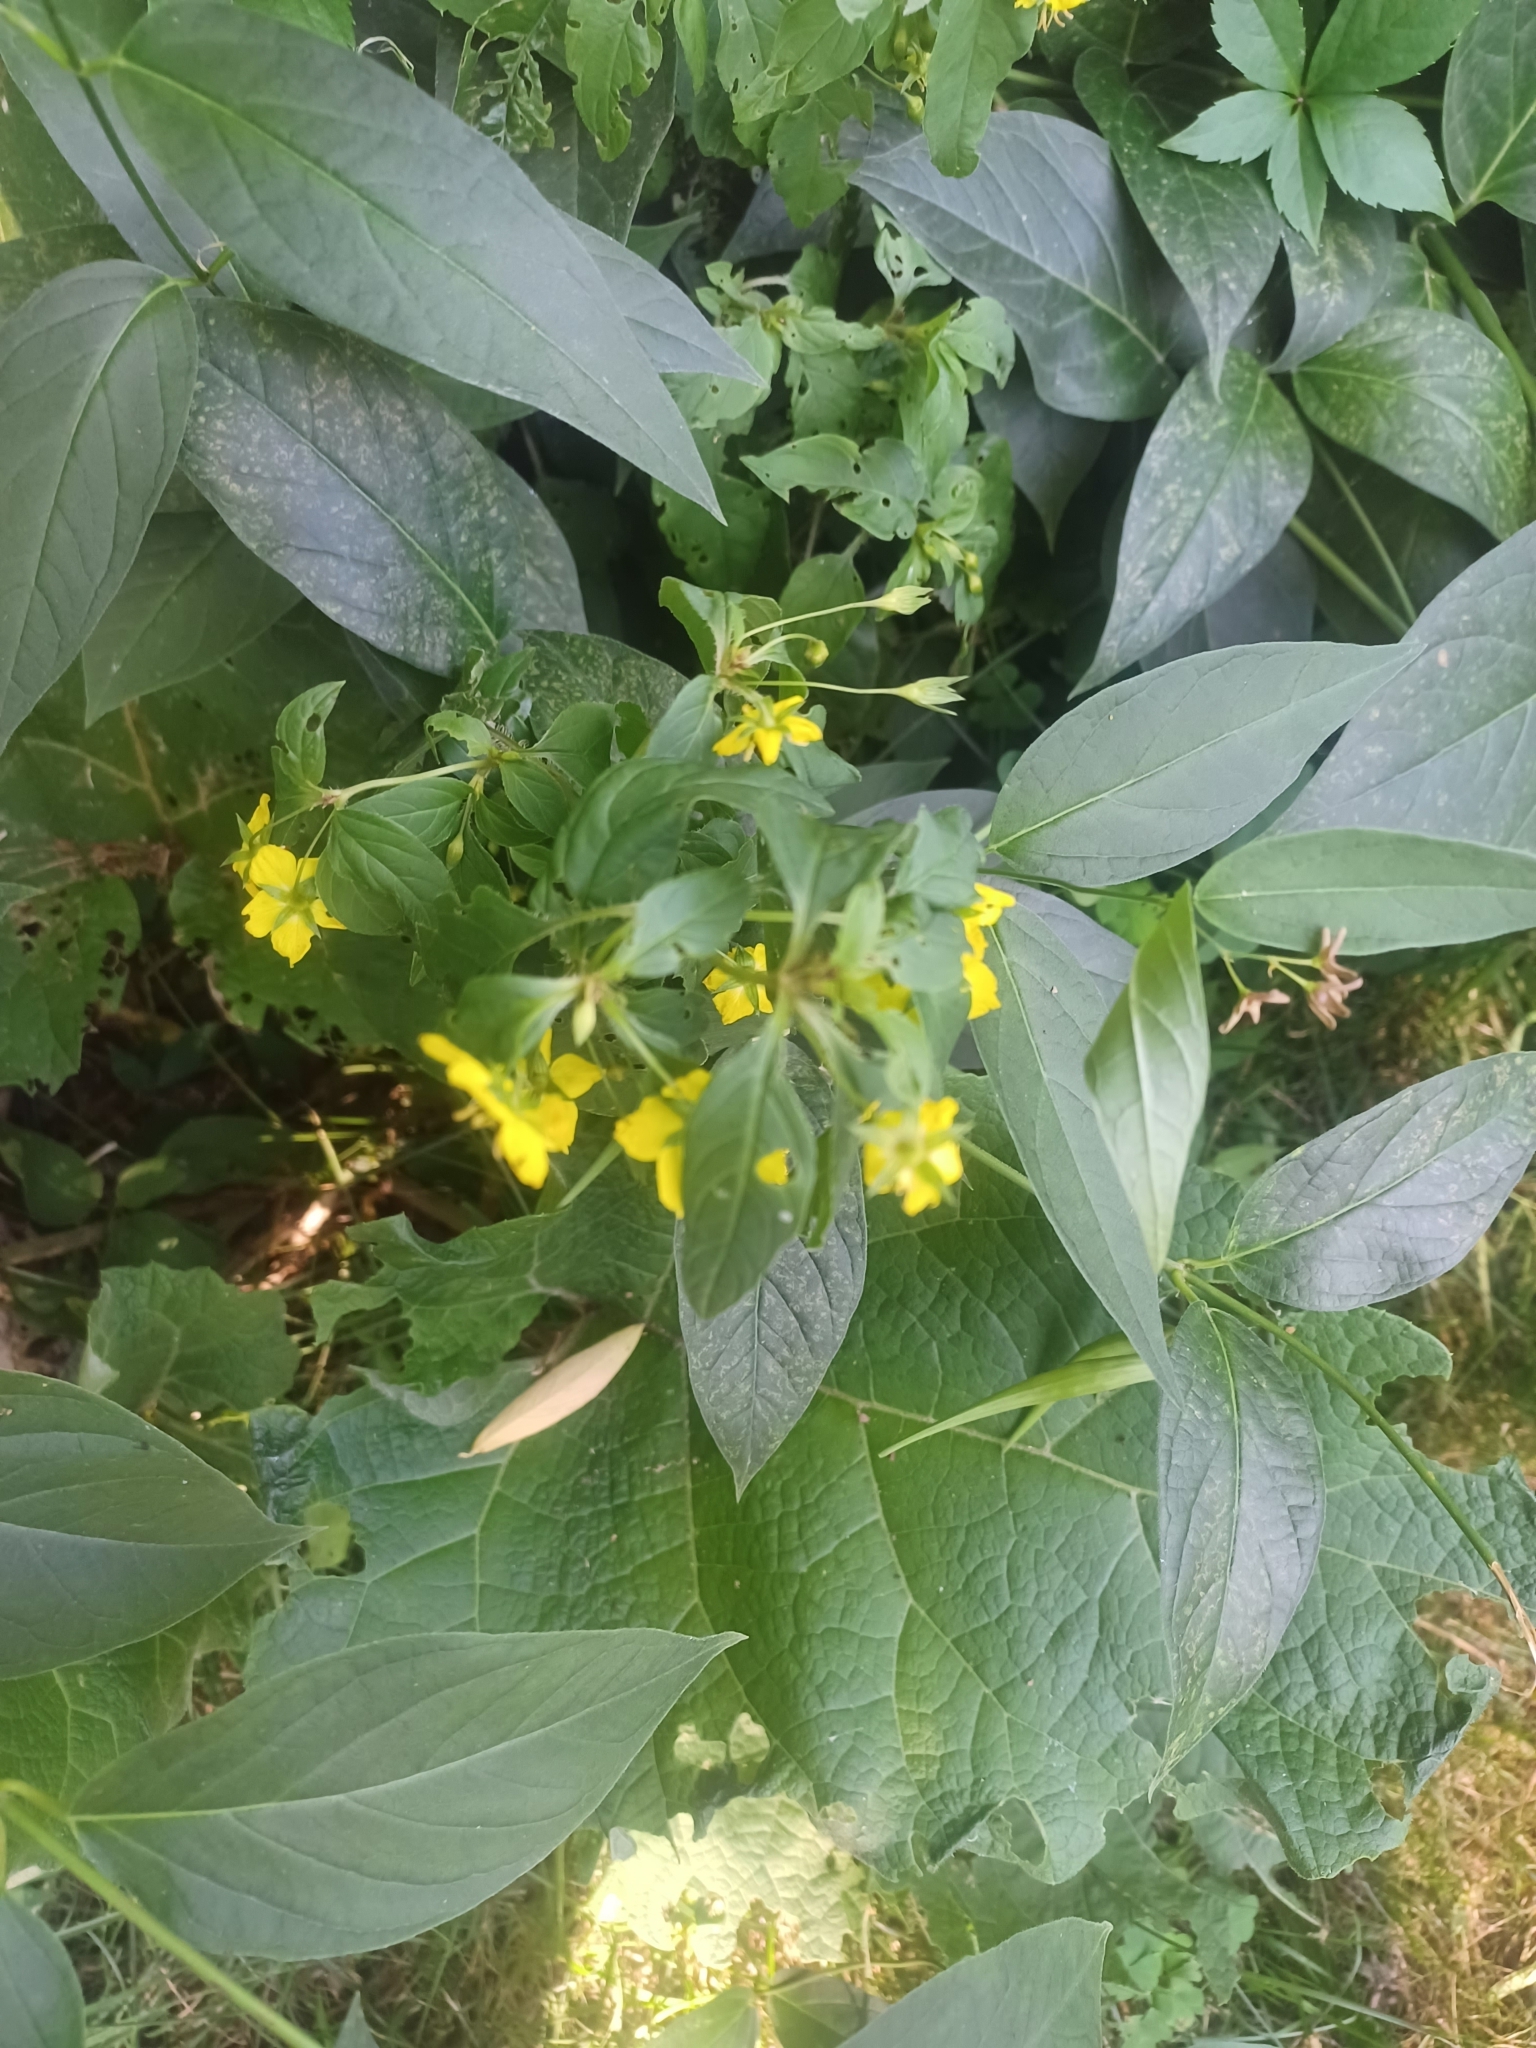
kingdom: Plantae
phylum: Tracheophyta
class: Magnoliopsida
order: Ericales
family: Primulaceae
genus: Lysimachia
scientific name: Lysimachia ciliata
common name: Fringed loosestrife
